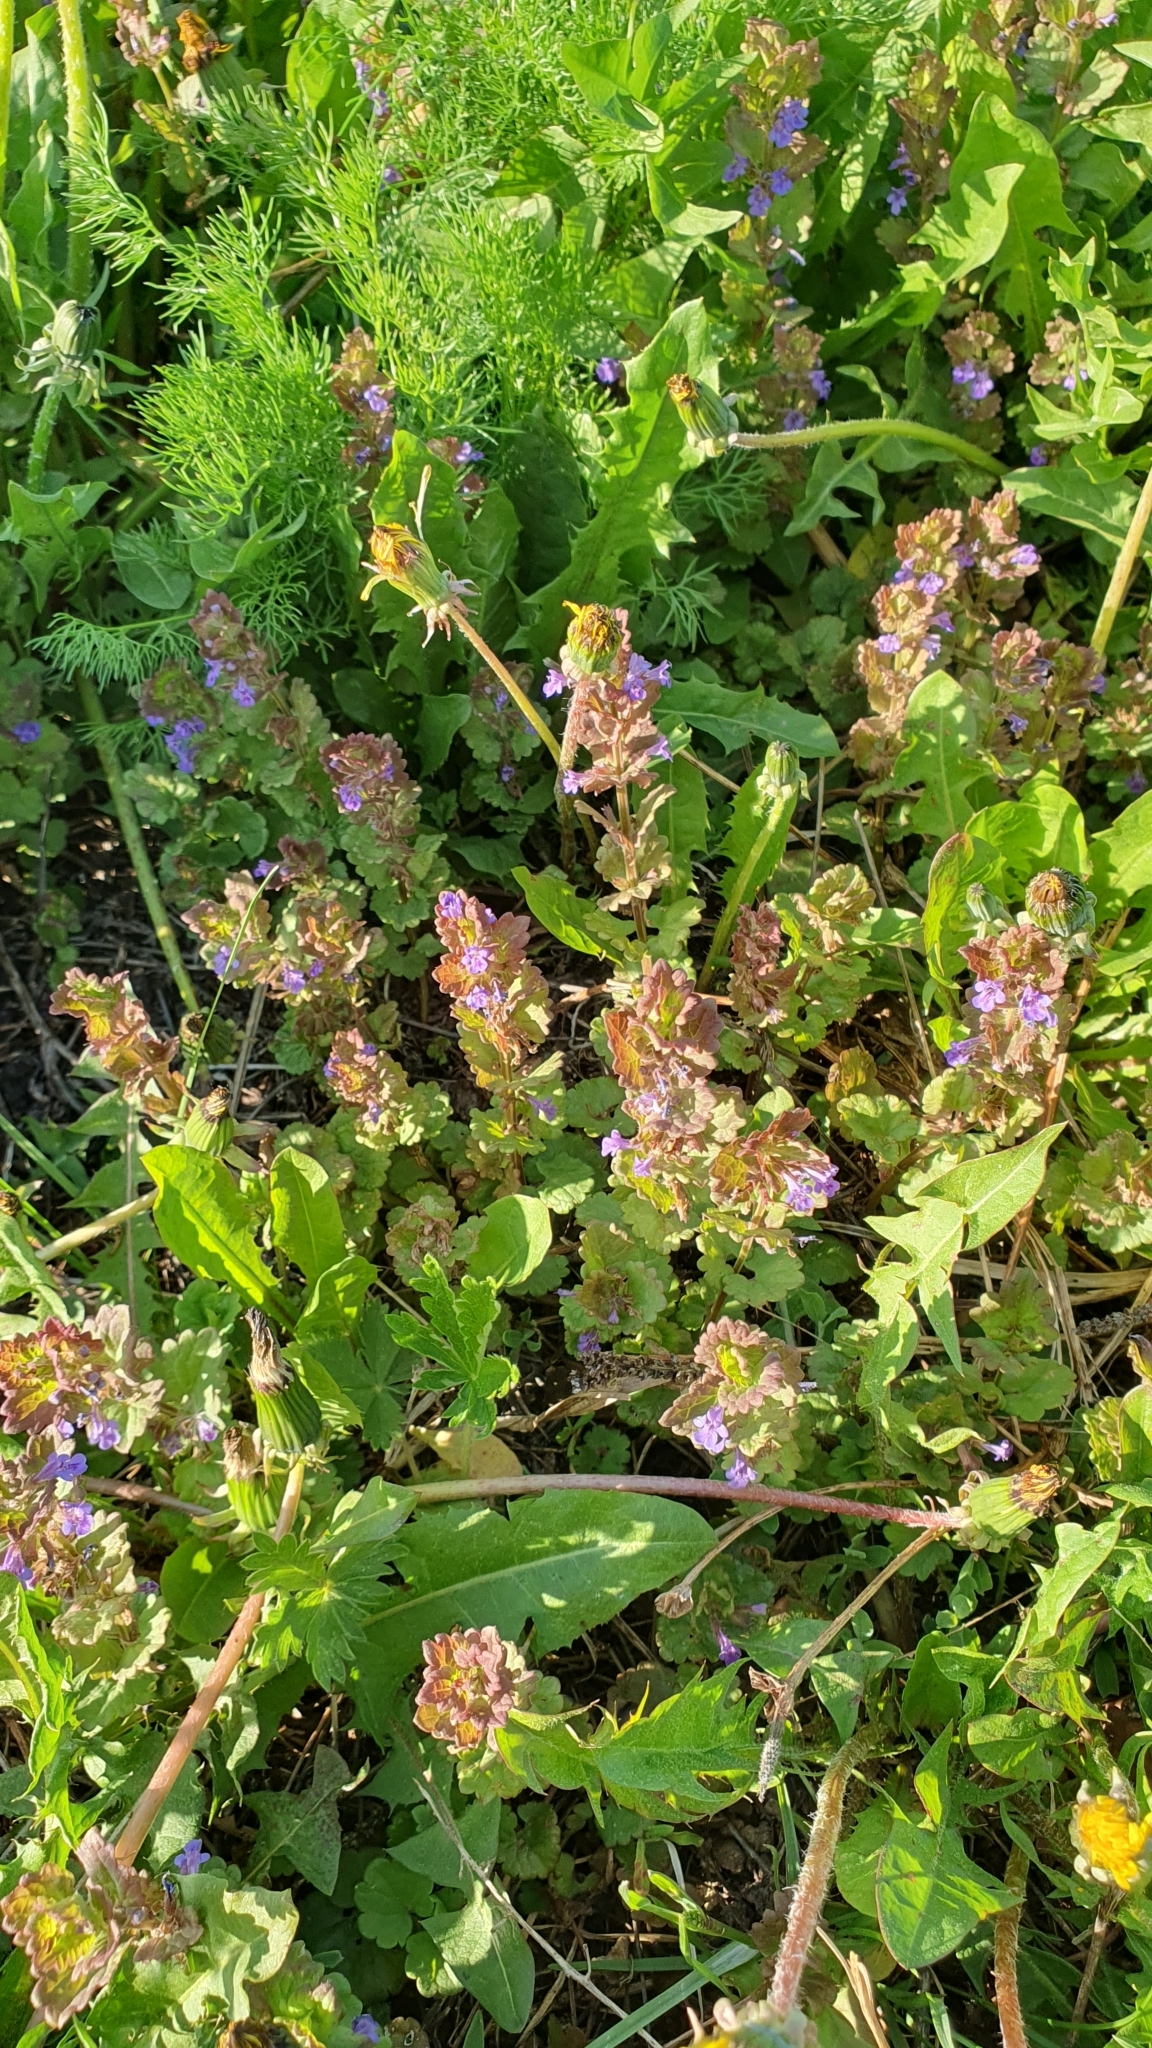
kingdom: Plantae
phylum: Tracheophyta
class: Magnoliopsida
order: Lamiales
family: Lamiaceae
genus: Glechoma
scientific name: Glechoma hederacea
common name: Ground ivy
